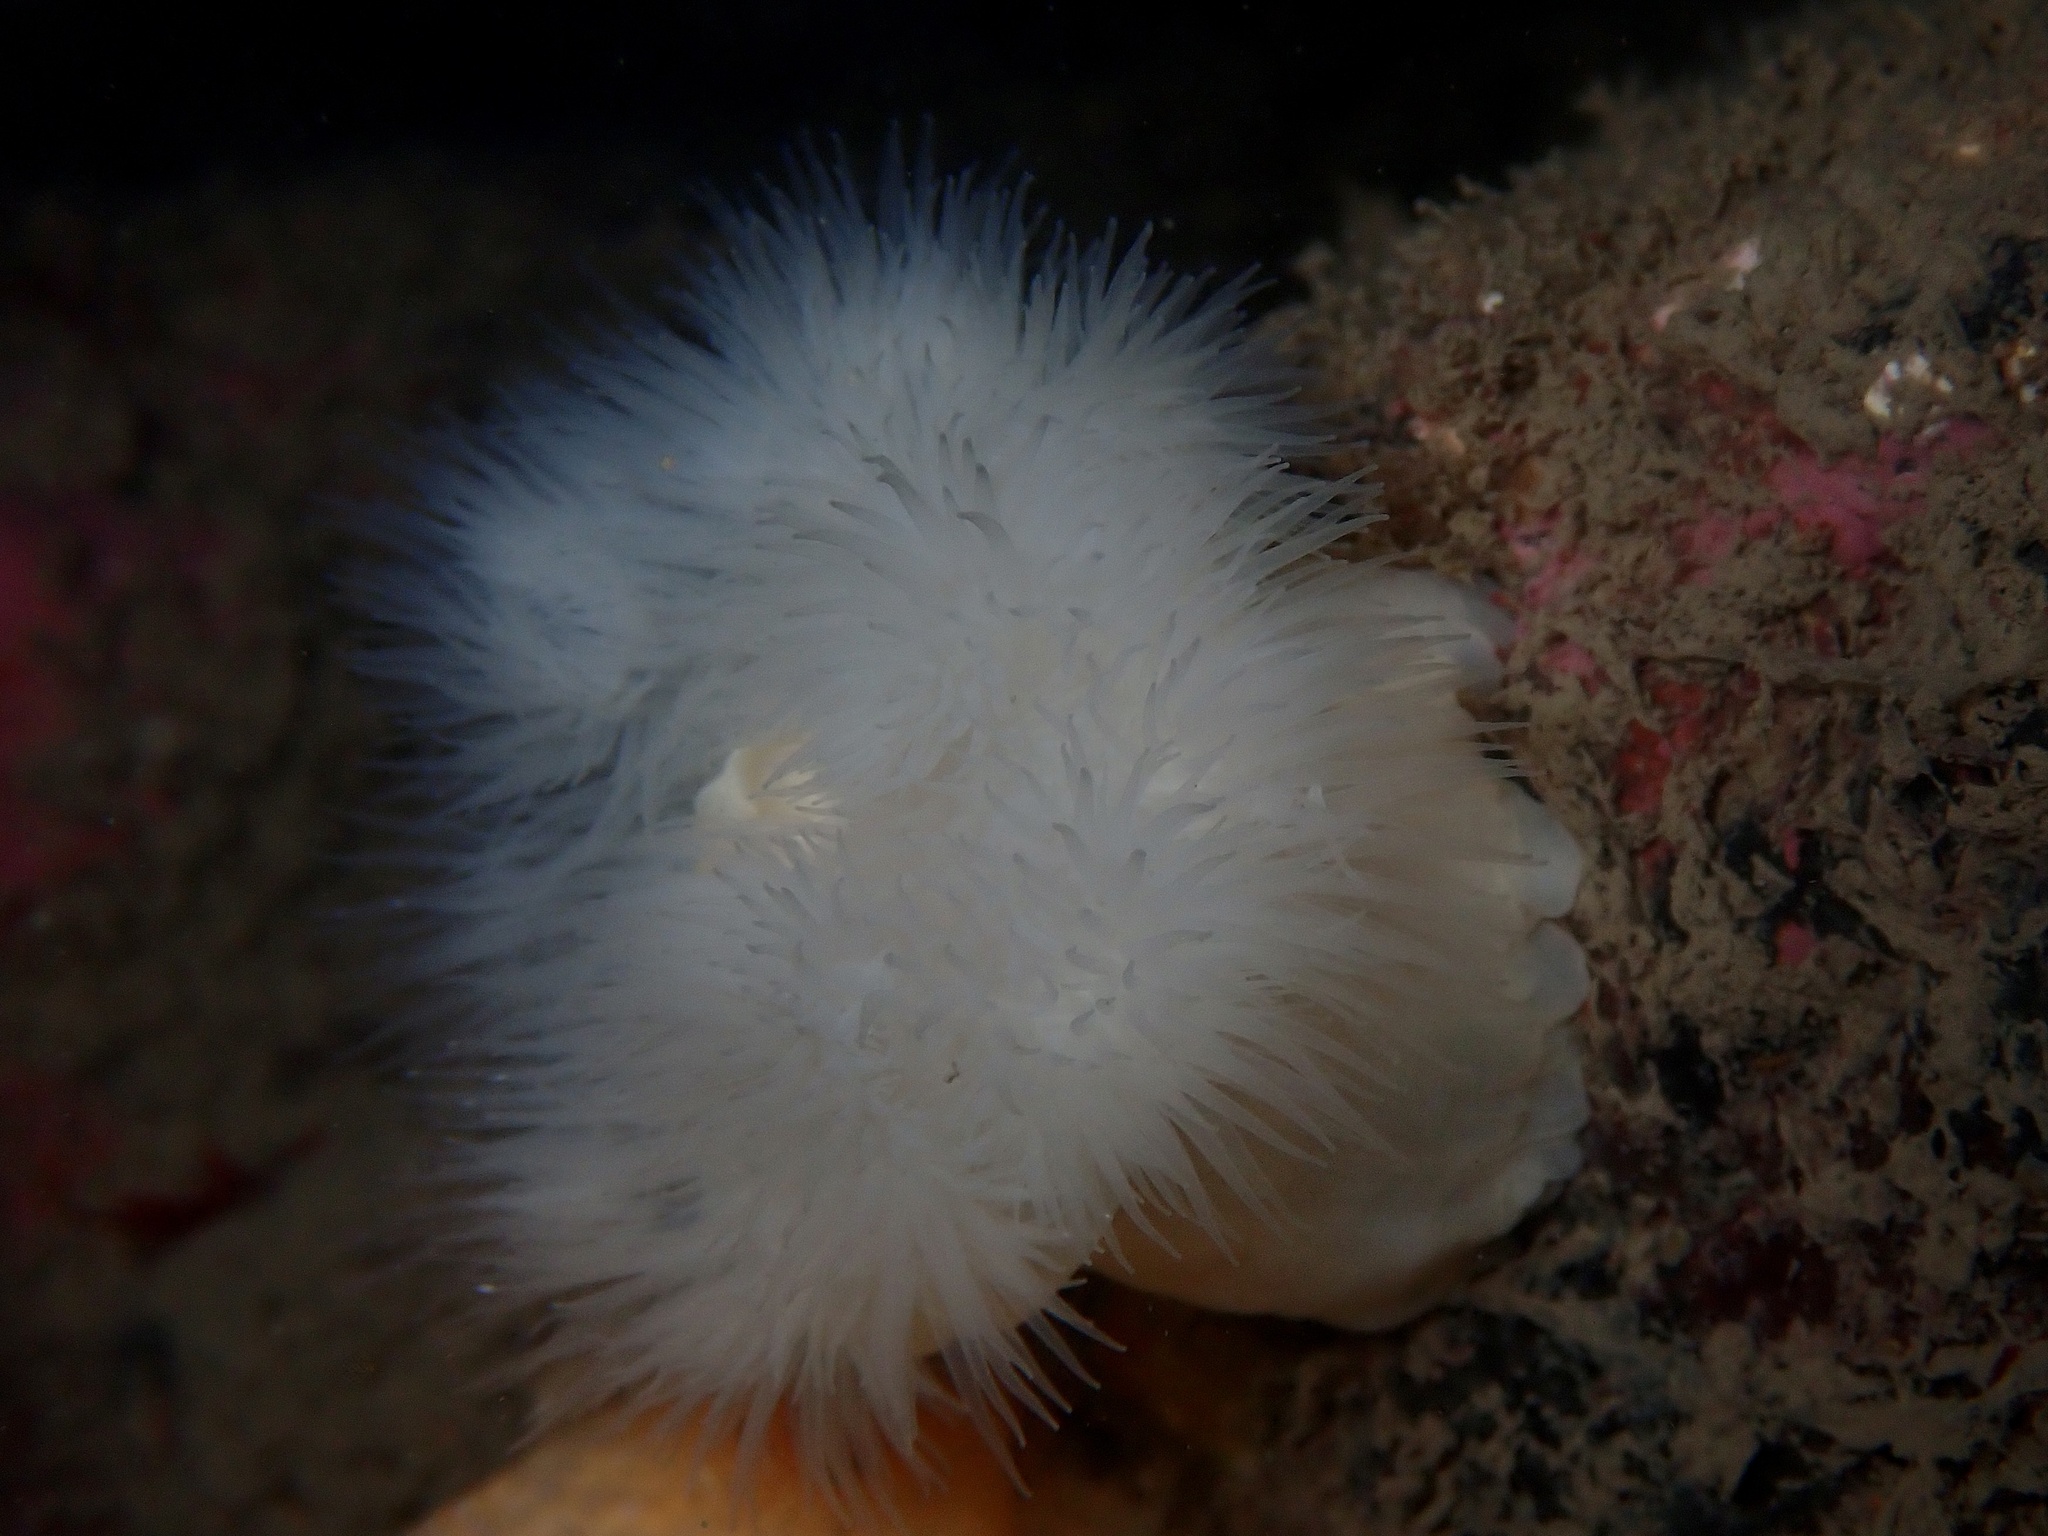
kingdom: Animalia
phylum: Cnidaria
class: Anthozoa
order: Actiniaria
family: Metridiidae
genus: Metridium
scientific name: Metridium senile
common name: Clonal plumose anemone
